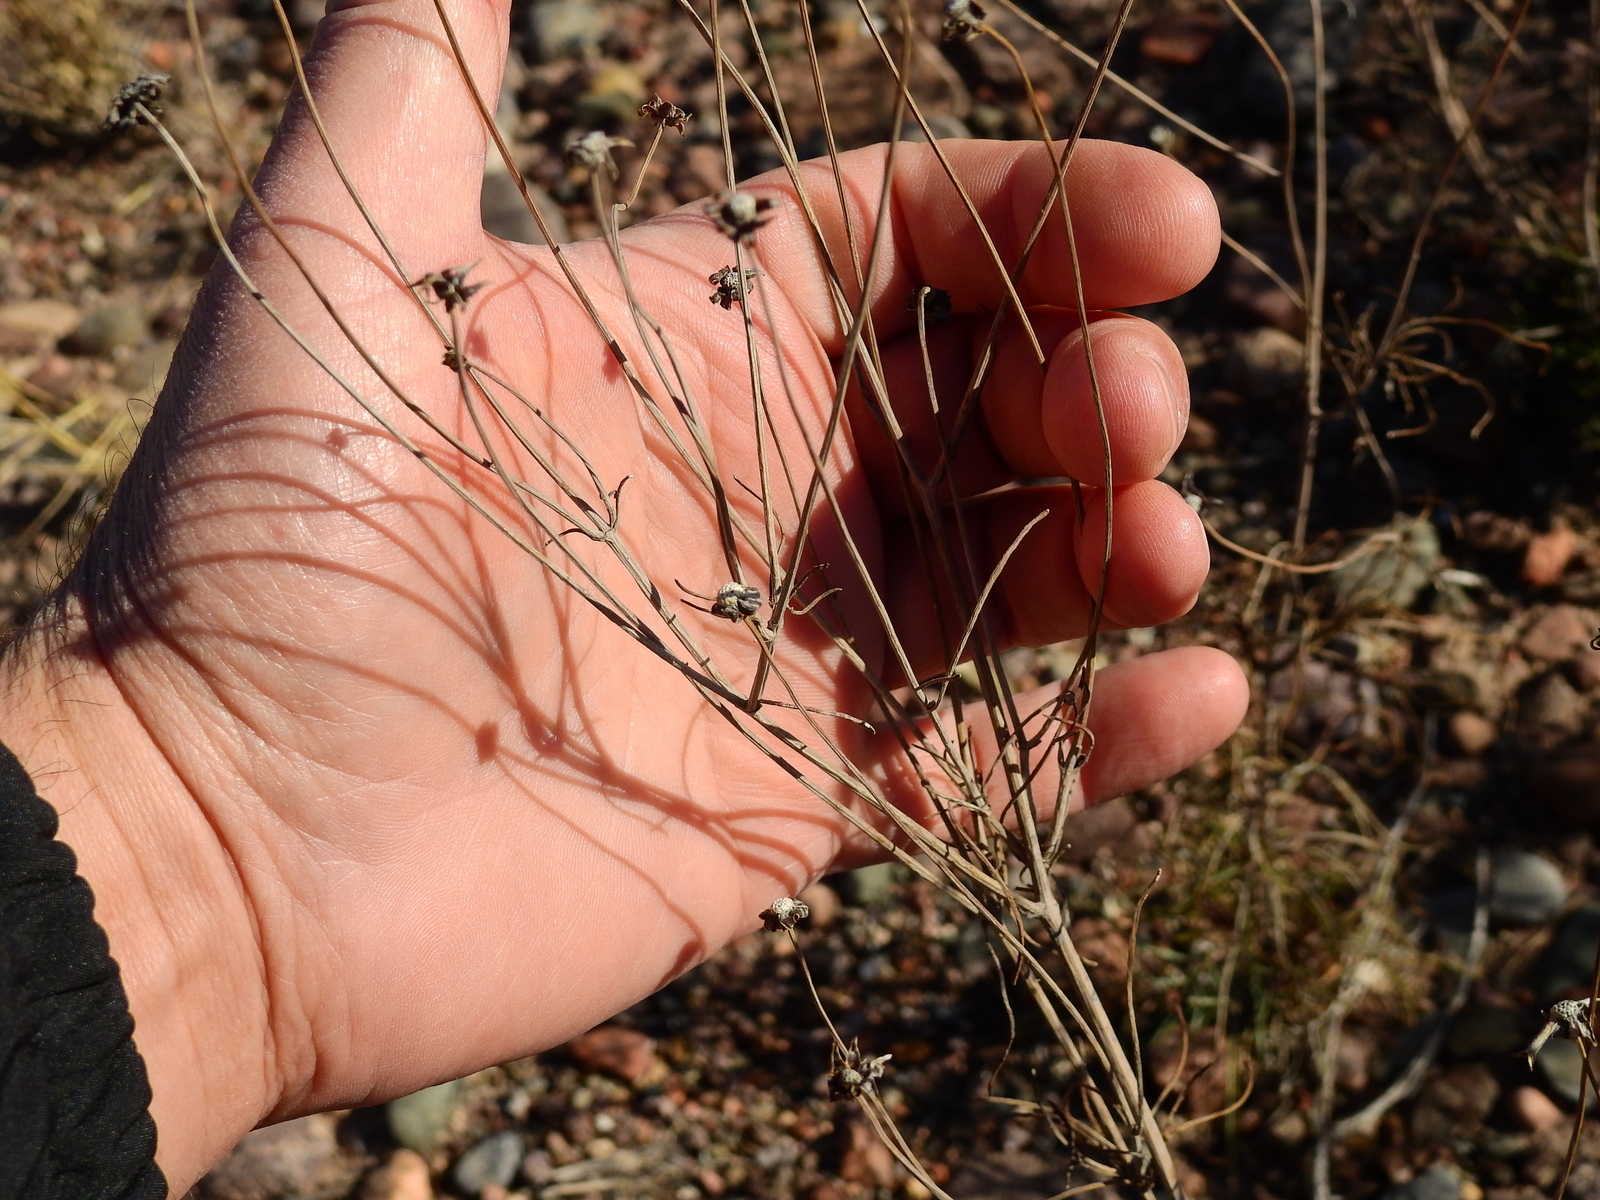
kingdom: Plantae
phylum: Tracheophyta
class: Magnoliopsida
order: Asterales
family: Asteraceae
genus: Thelesperma
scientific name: Thelesperma megapotamicum
